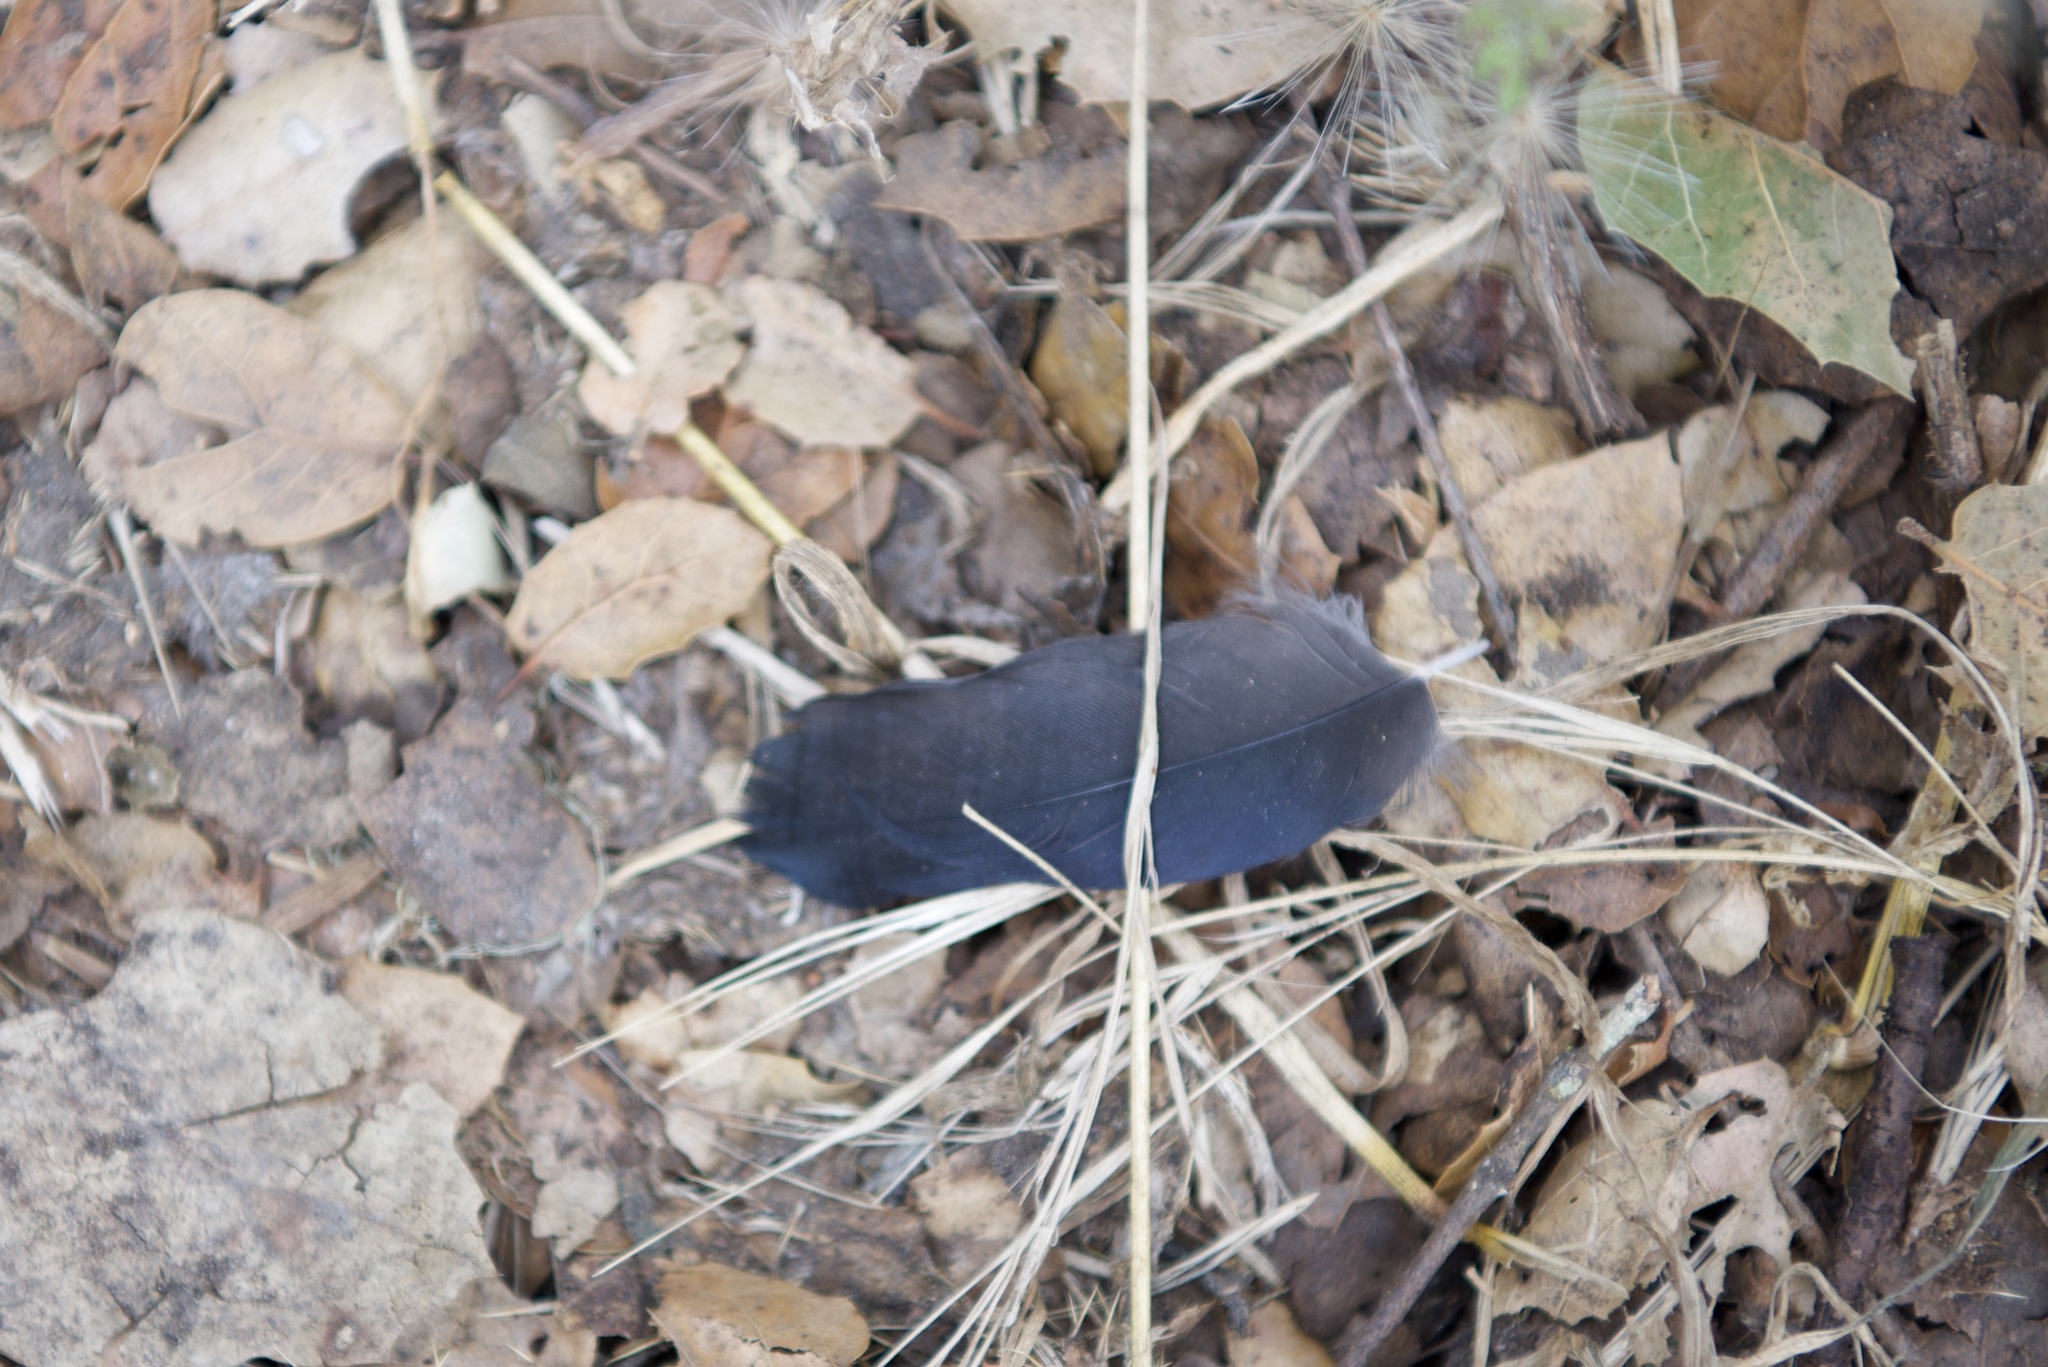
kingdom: Animalia
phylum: Chordata
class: Aves
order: Passeriformes
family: Corvidae
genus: Corvus
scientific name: Corvus brachyrhynchos
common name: American crow
